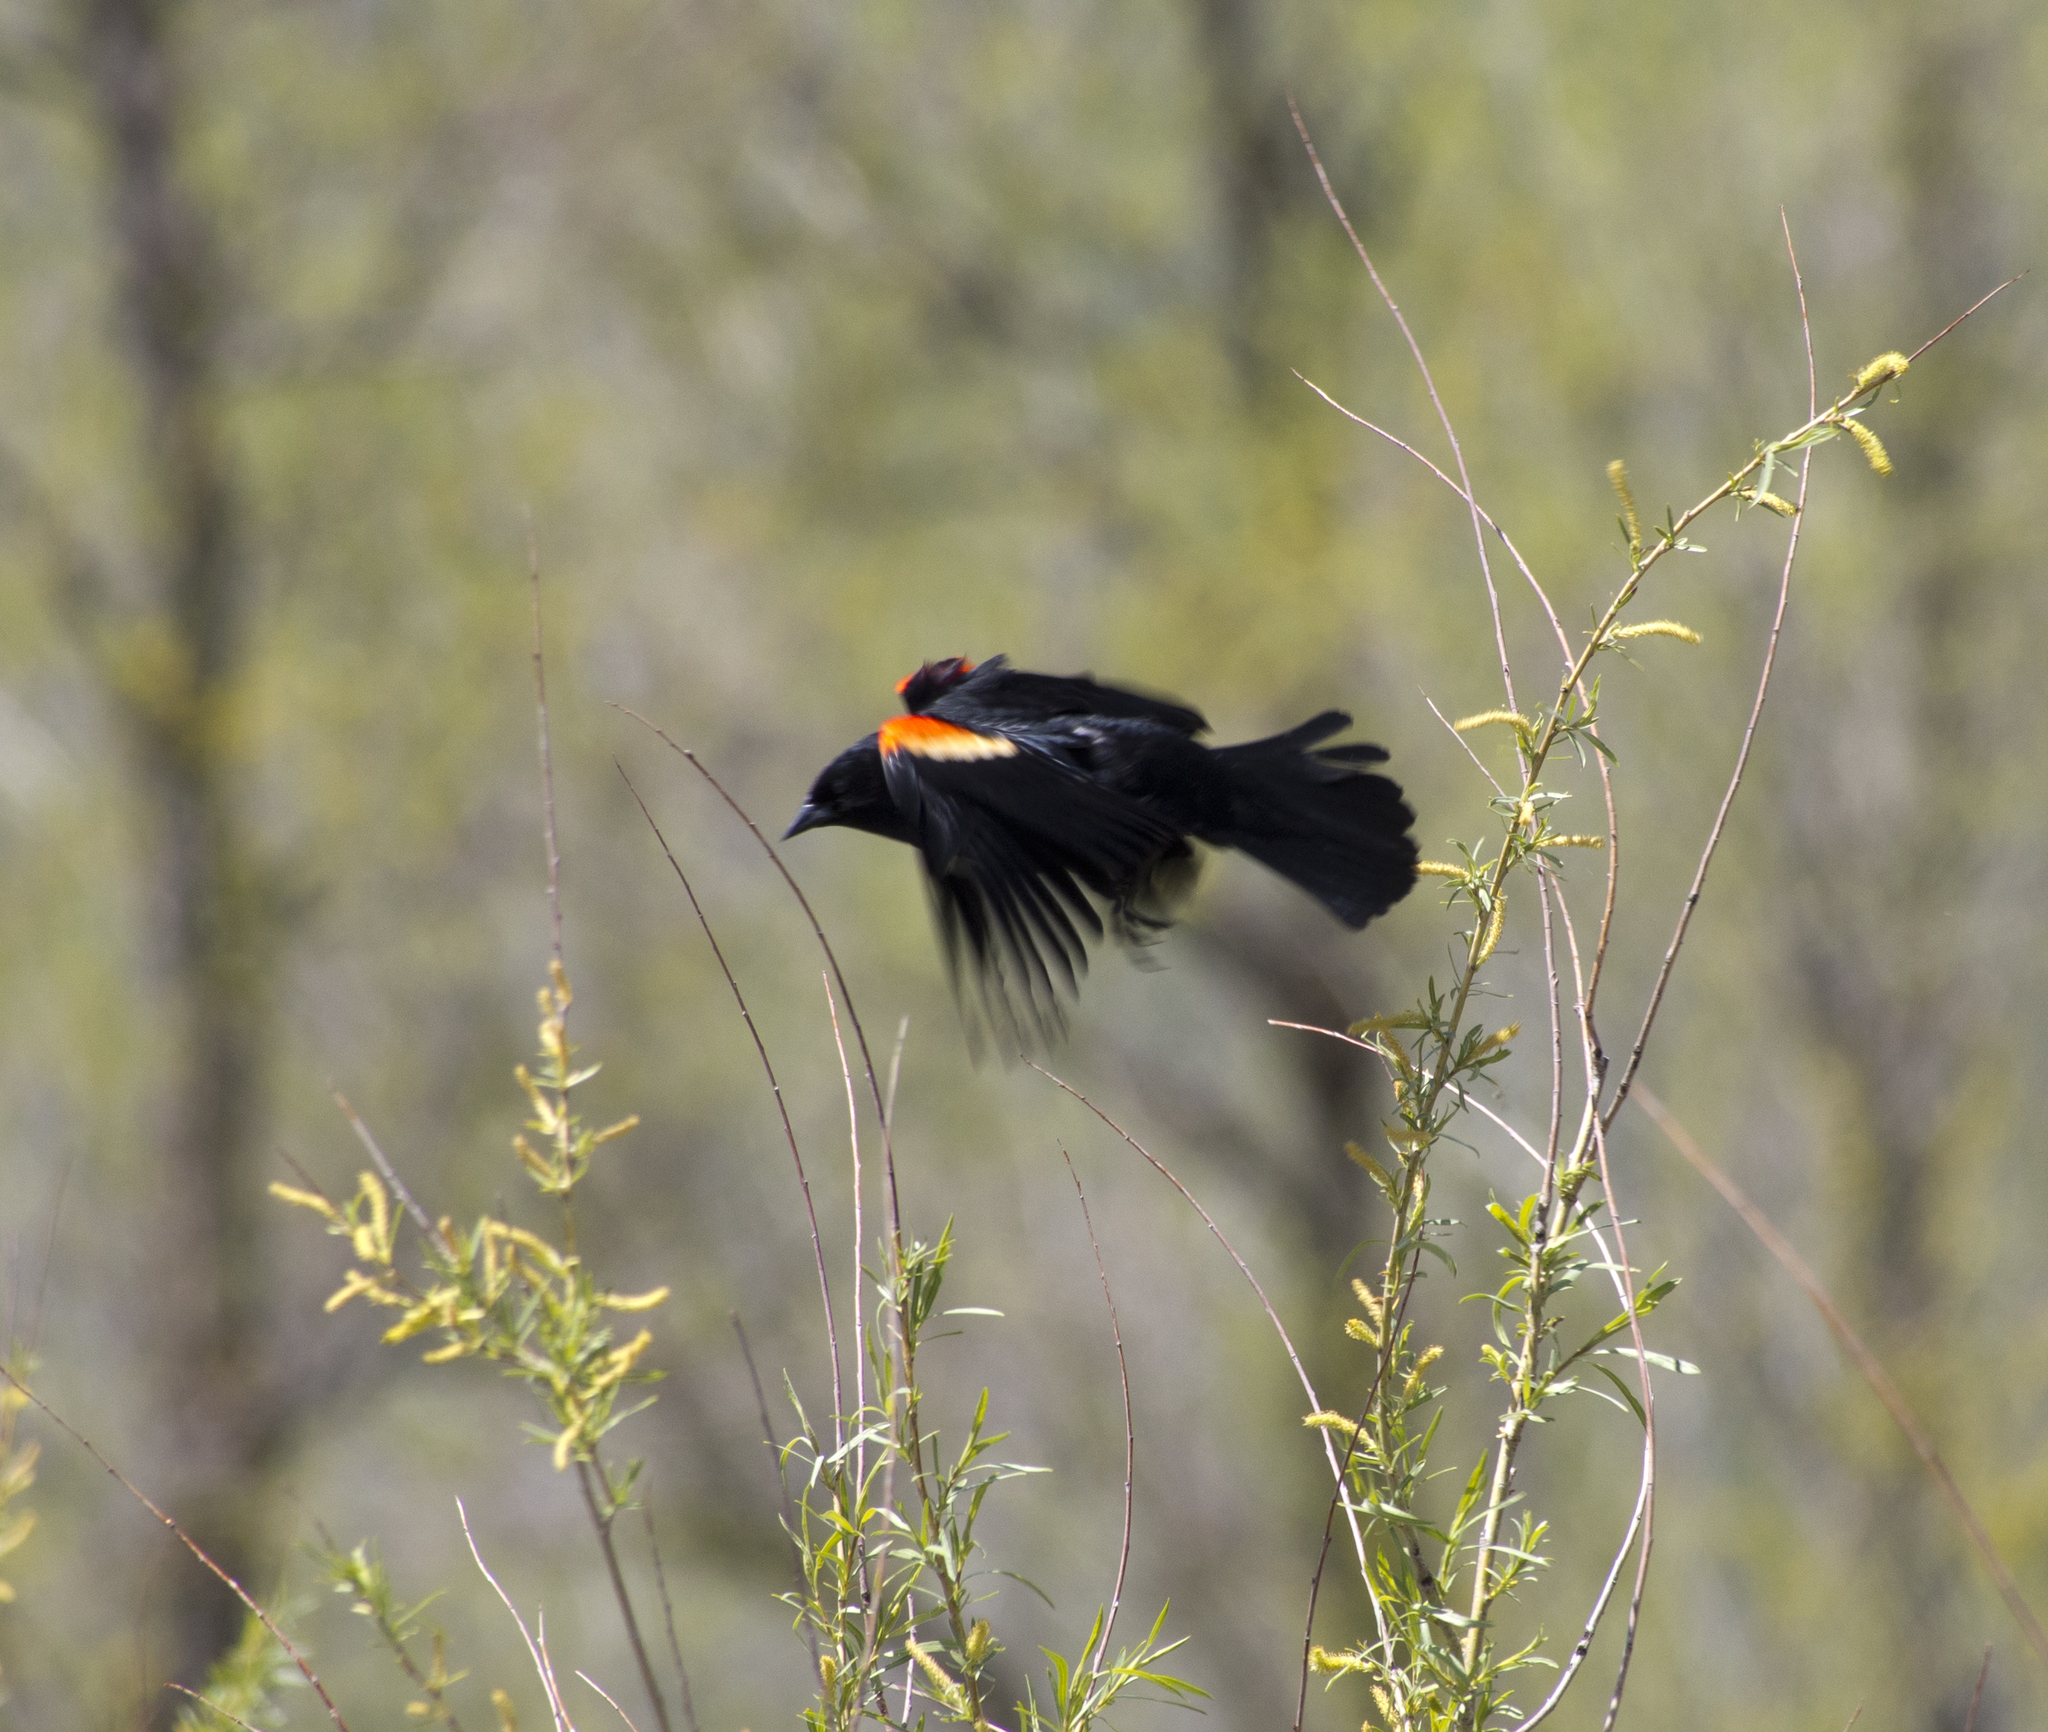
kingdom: Animalia
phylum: Chordata
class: Aves
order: Passeriformes
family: Icteridae
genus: Agelaius
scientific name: Agelaius phoeniceus
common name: Red-winged blackbird
